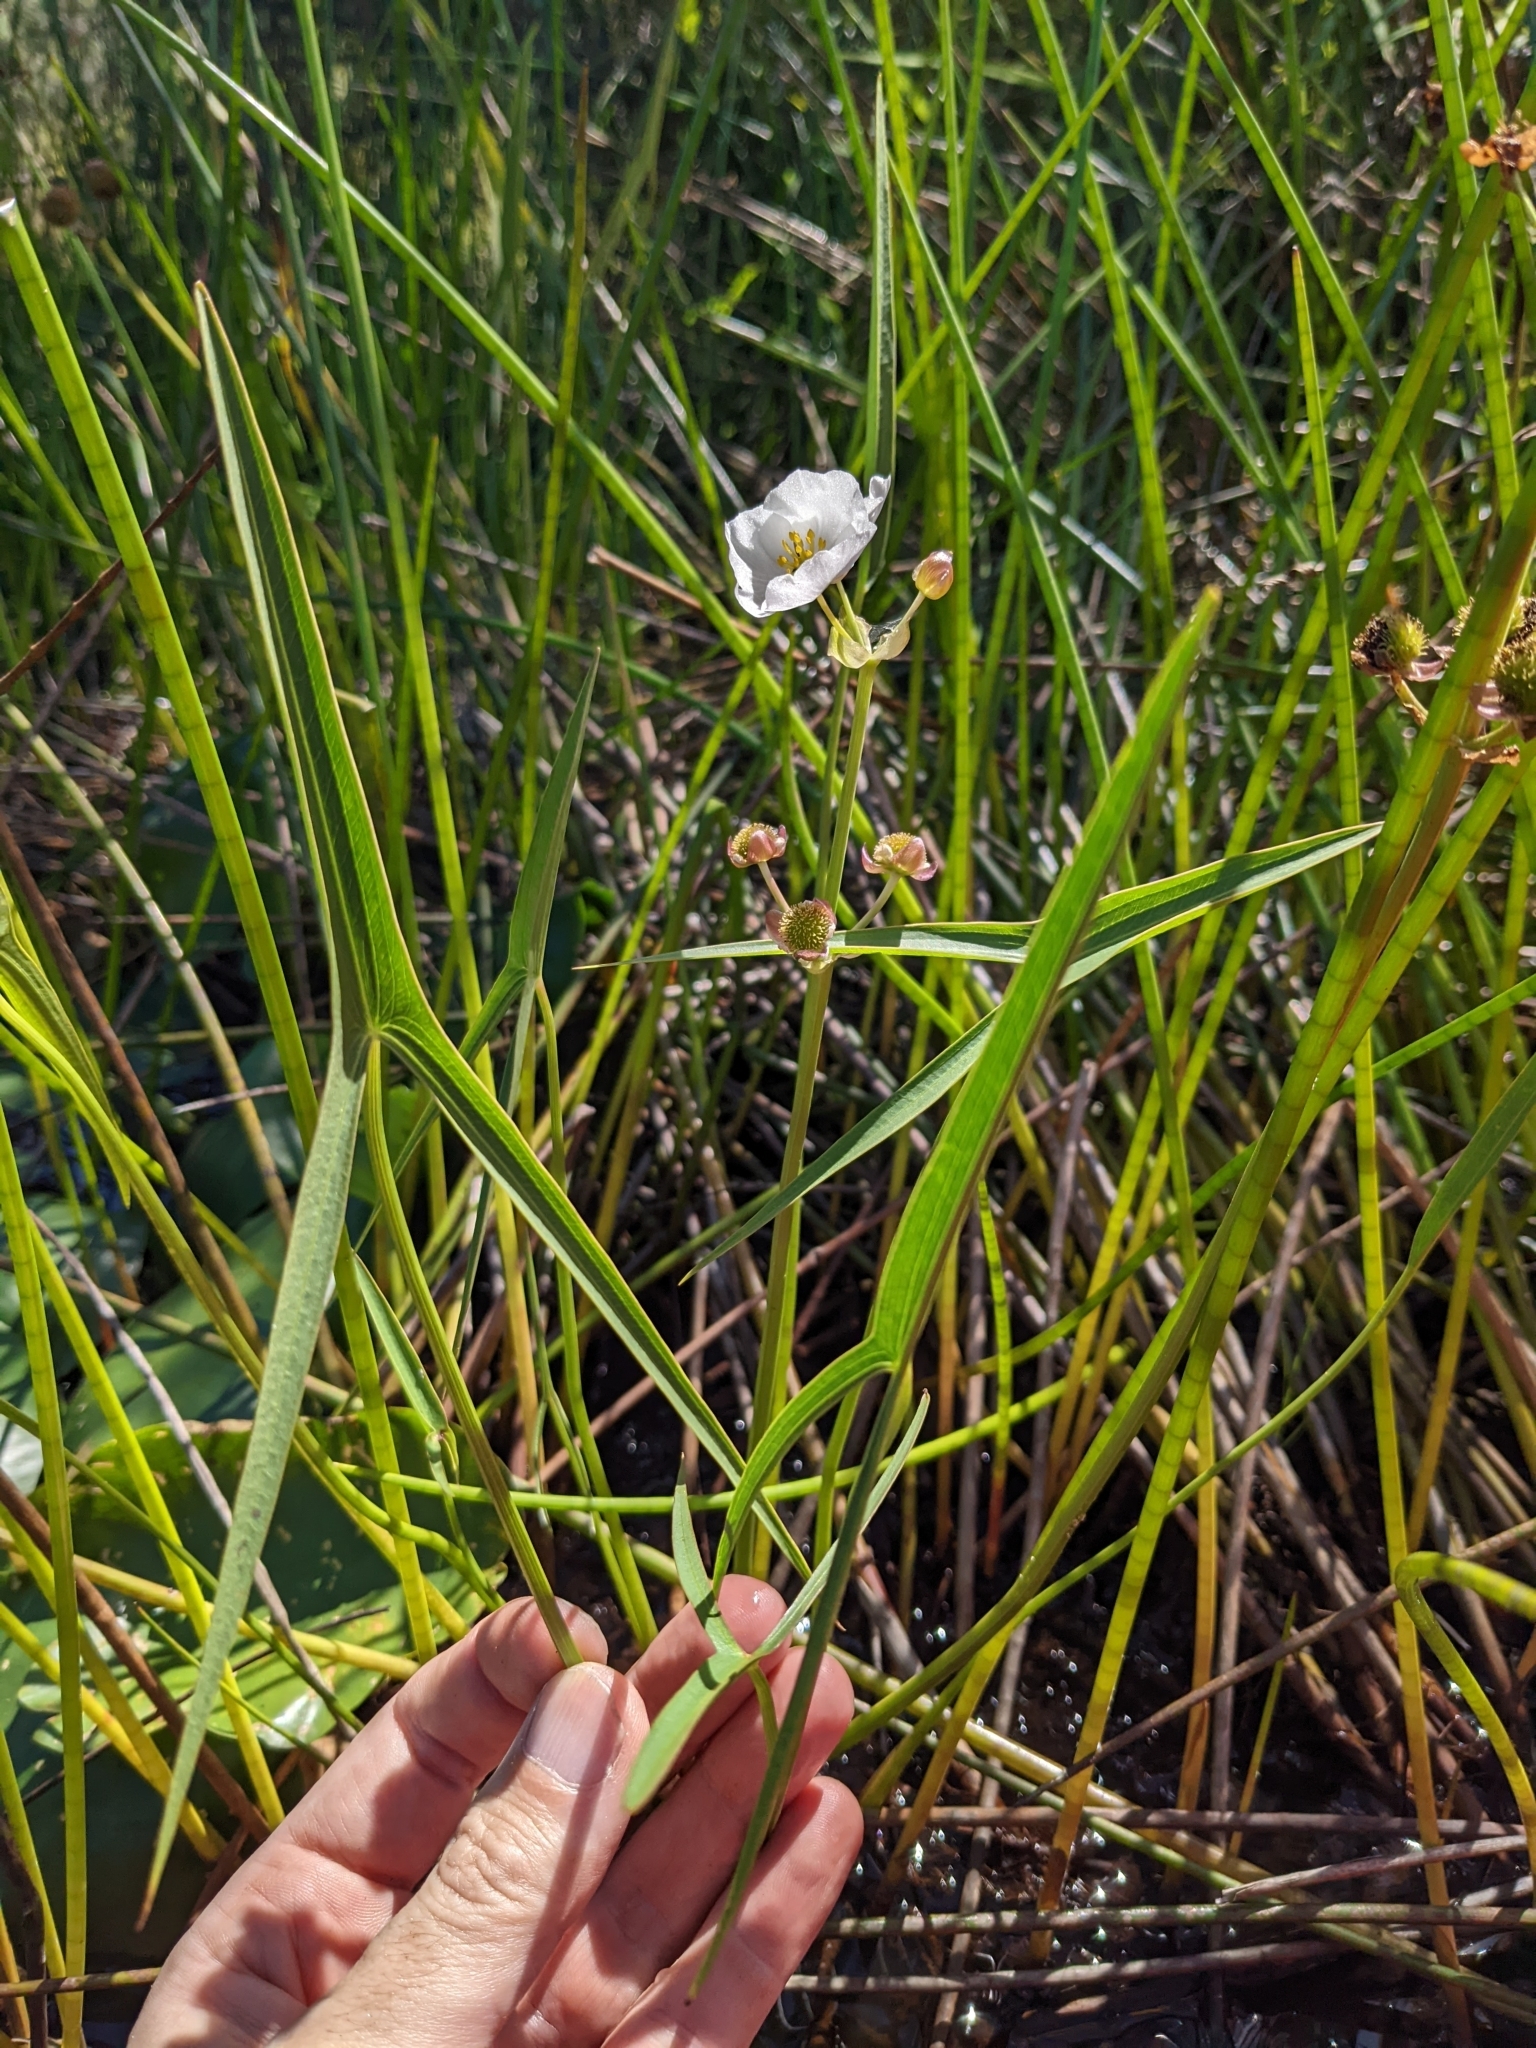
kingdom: Plantae
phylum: Tracheophyta
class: Liliopsida
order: Alismatales
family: Alismataceae
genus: Sagittaria
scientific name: Sagittaria engelmanniana
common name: Acid-water arrowhead
